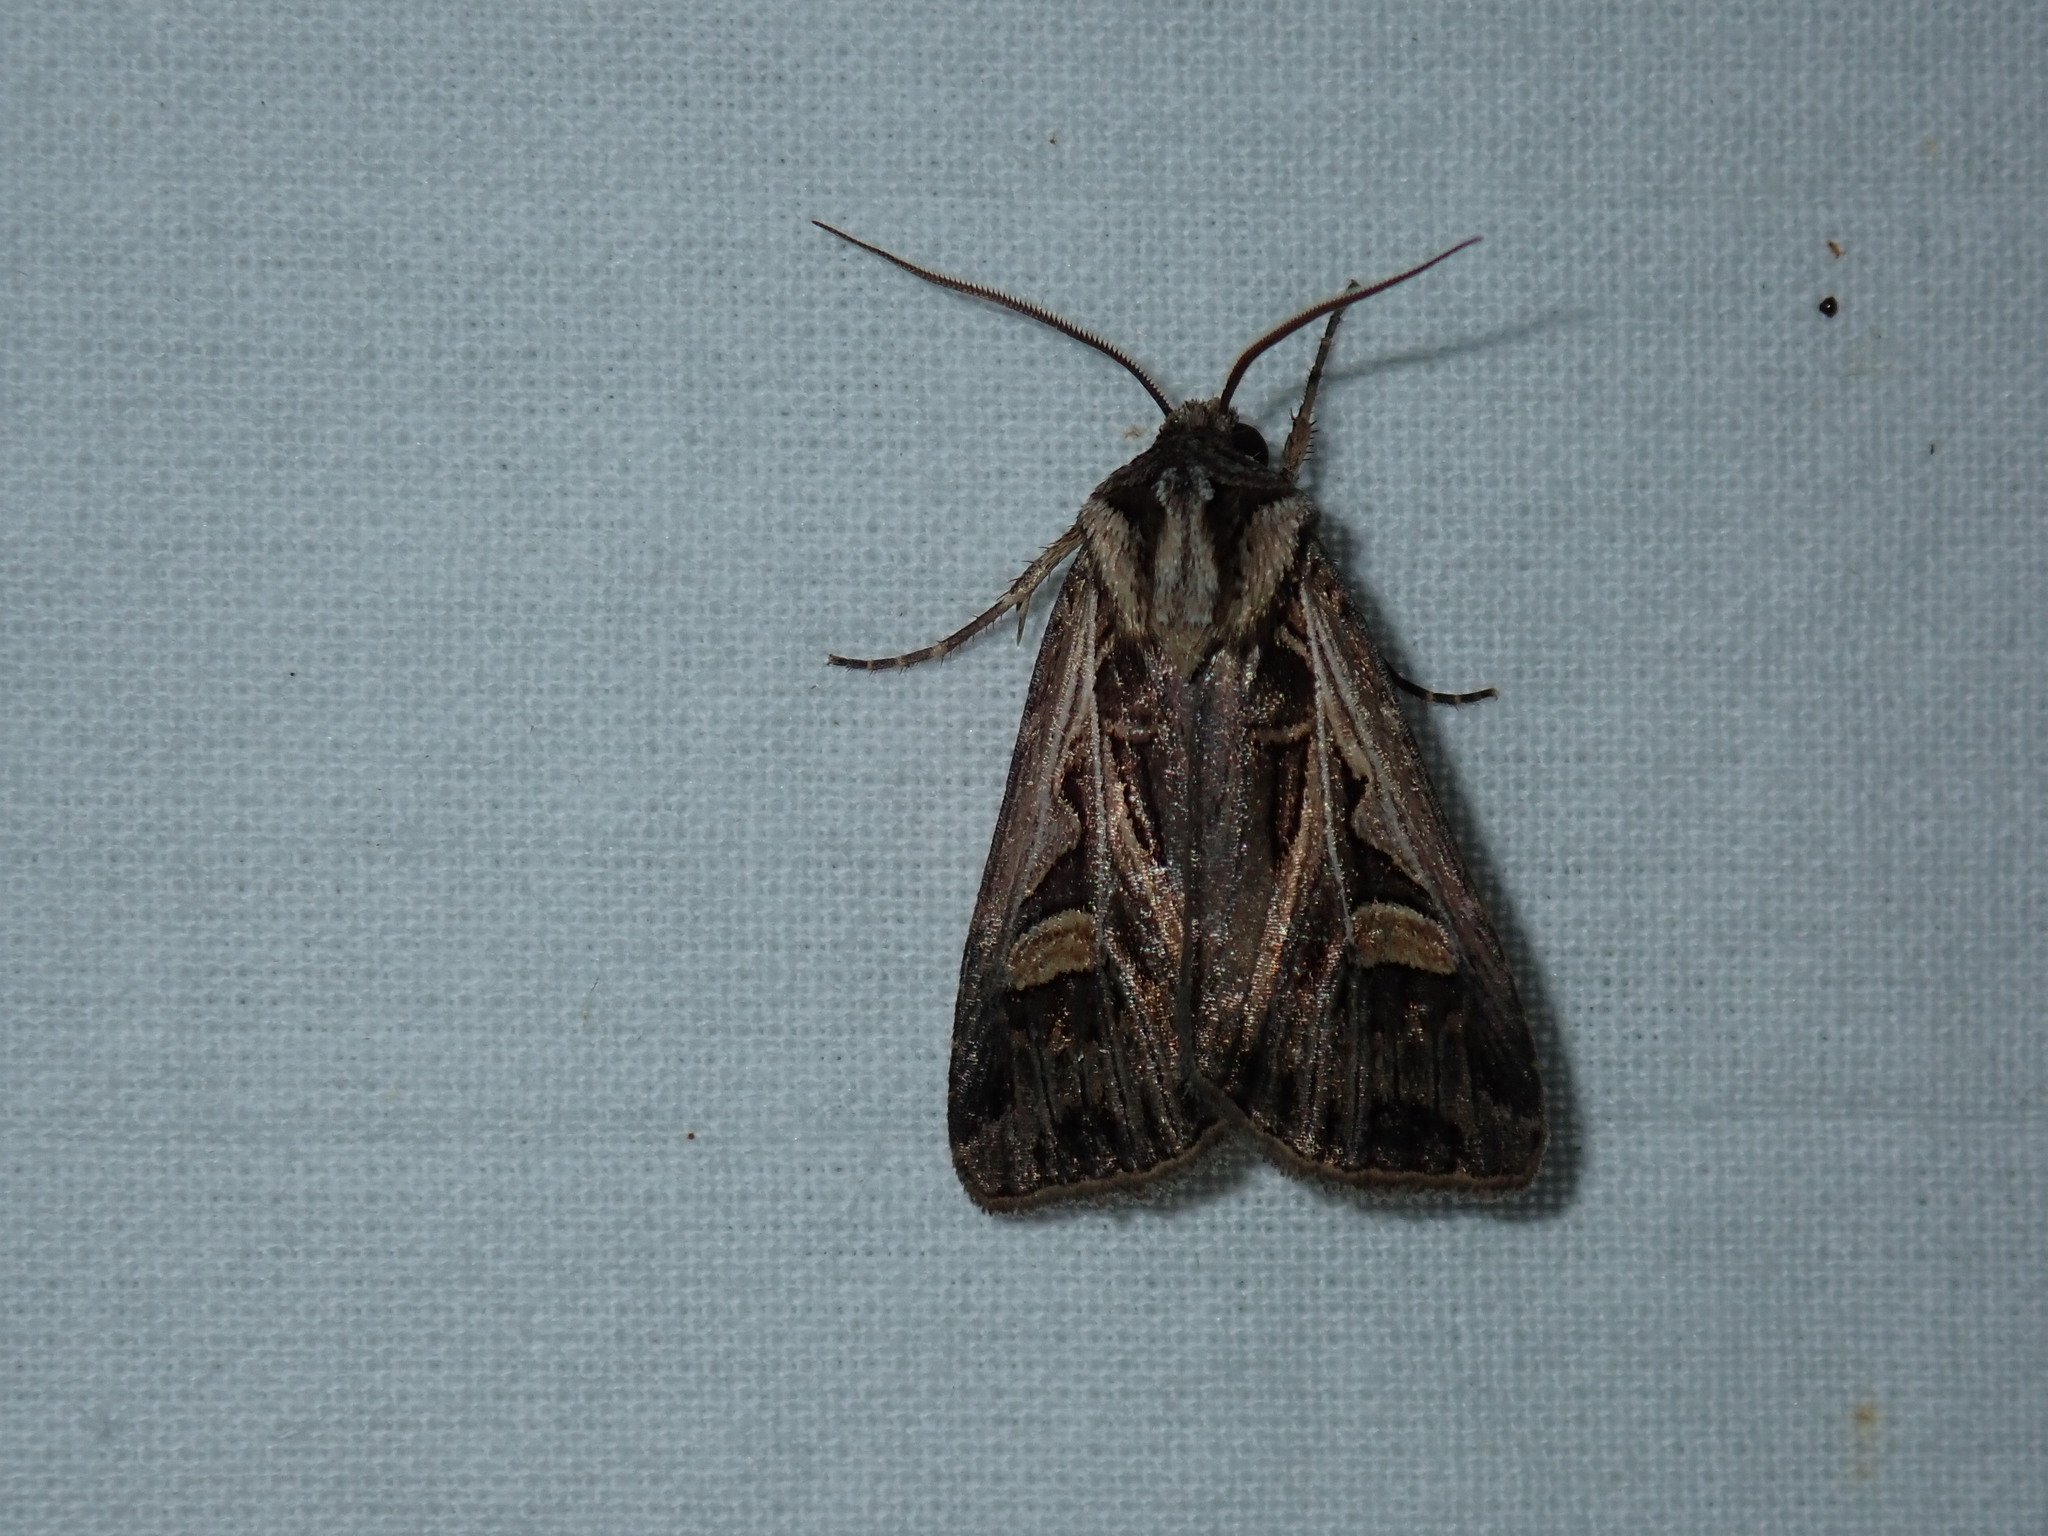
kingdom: Animalia
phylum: Arthropoda
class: Insecta
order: Lepidoptera
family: Noctuidae
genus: Feltia
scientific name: Feltia jaculifera
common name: Dingy cutworm moth
